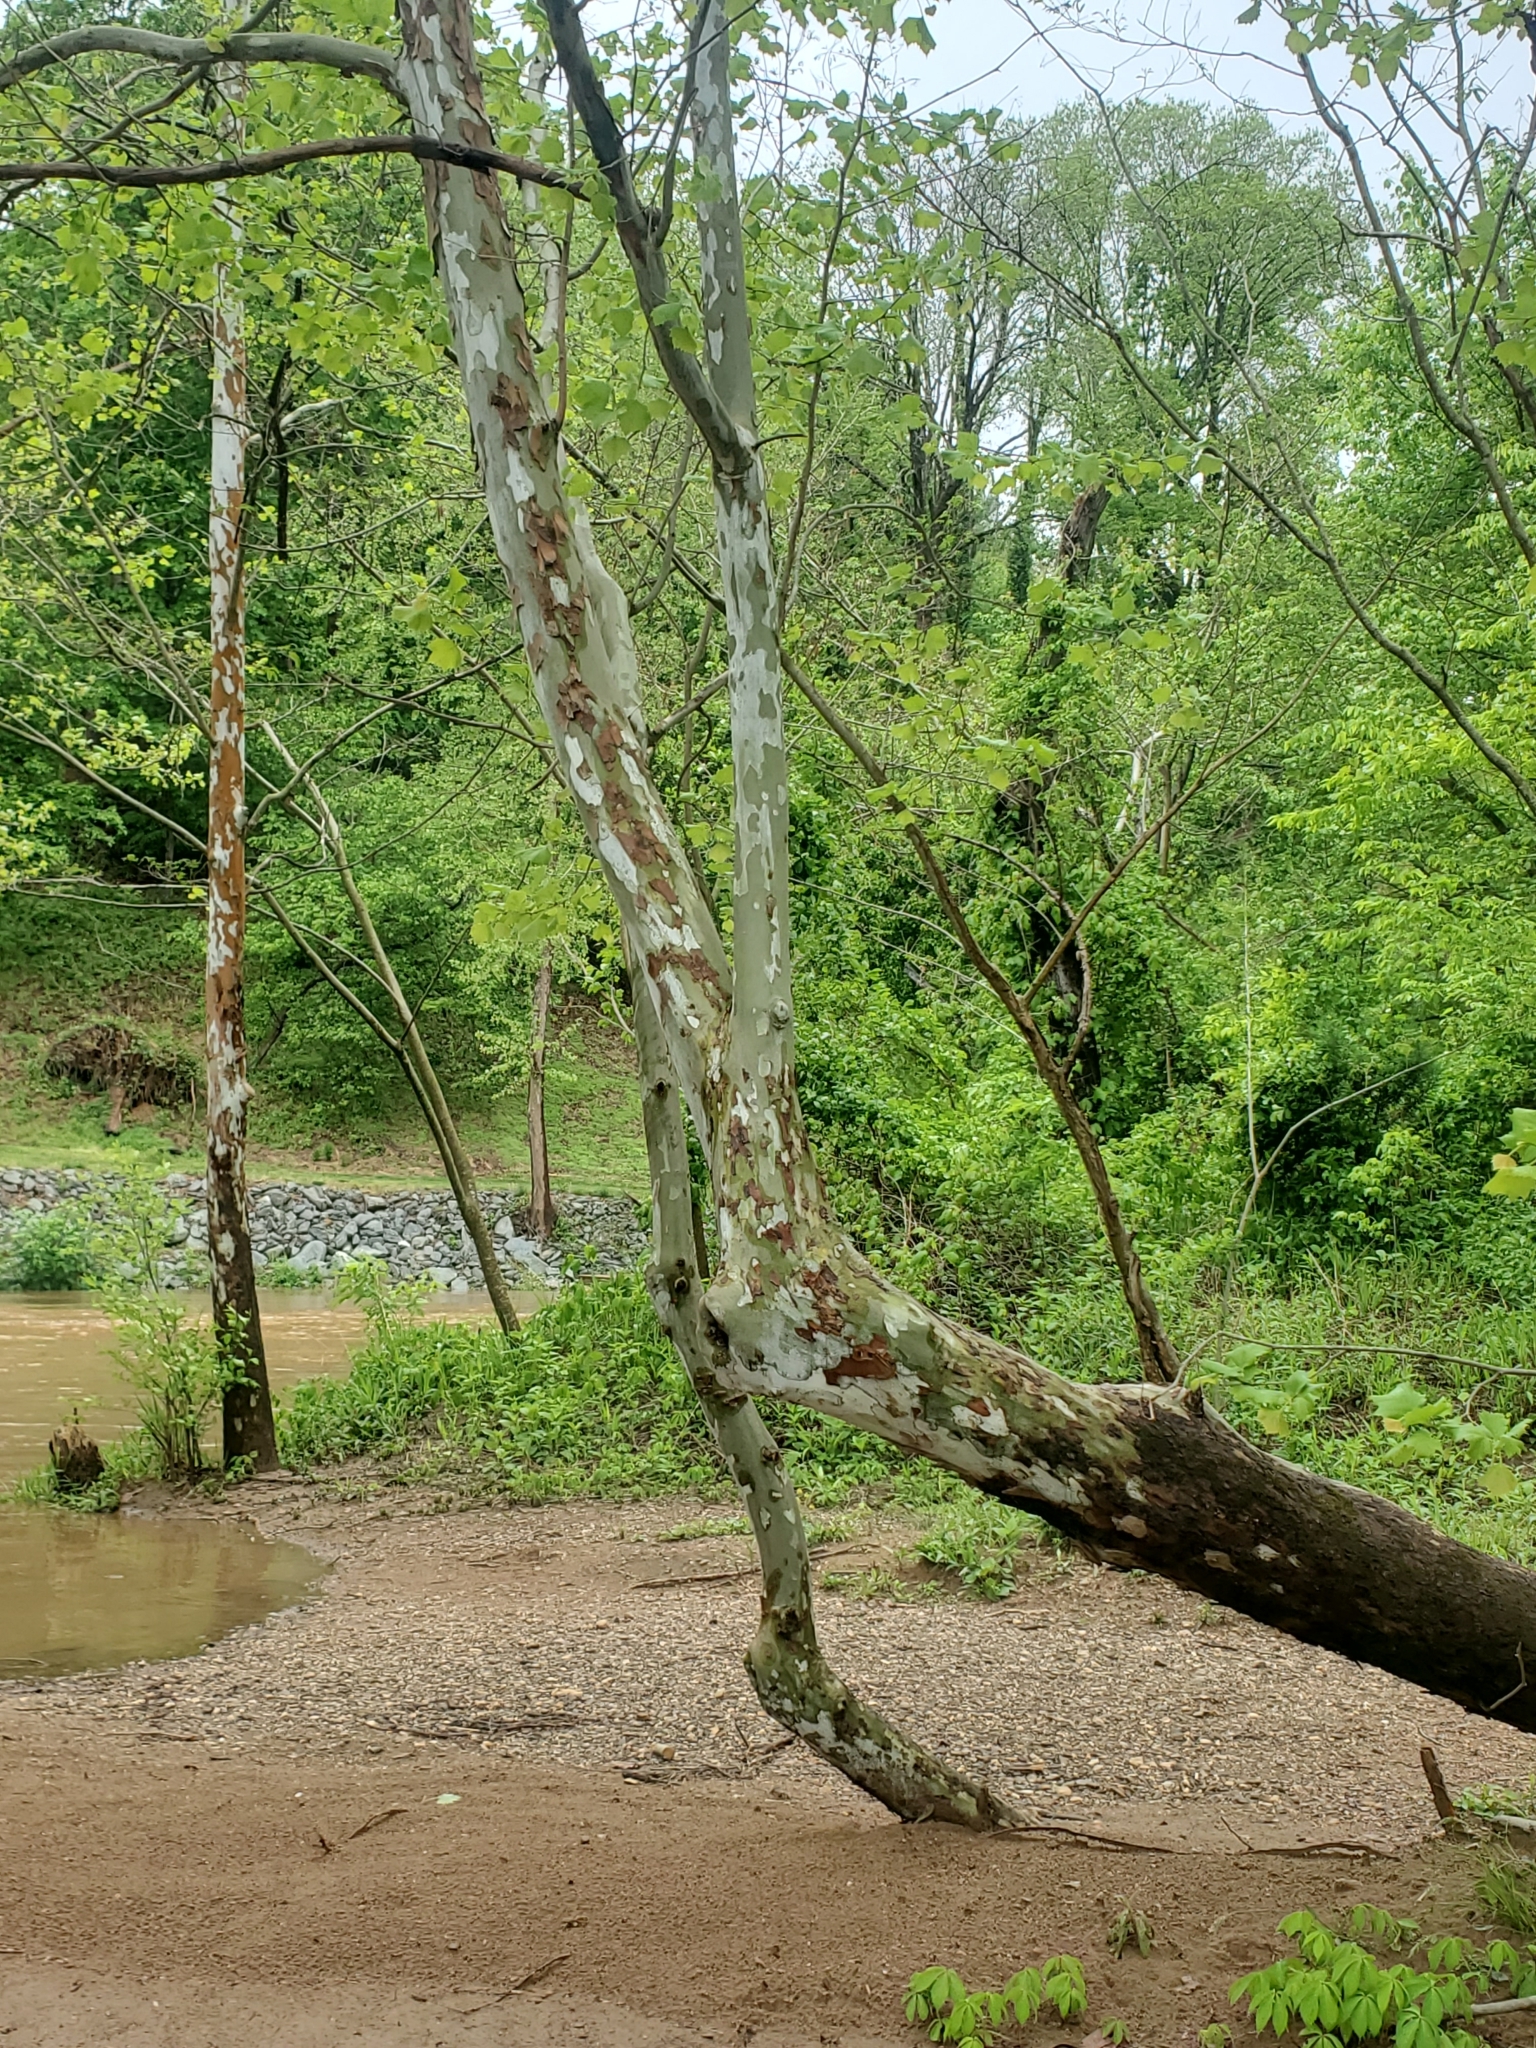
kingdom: Plantae
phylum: Tracheophyta
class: Magnoliopsida
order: Proteales
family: Platanaceae
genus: Platanus
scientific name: Platanus occidentalis
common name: American sycamore
